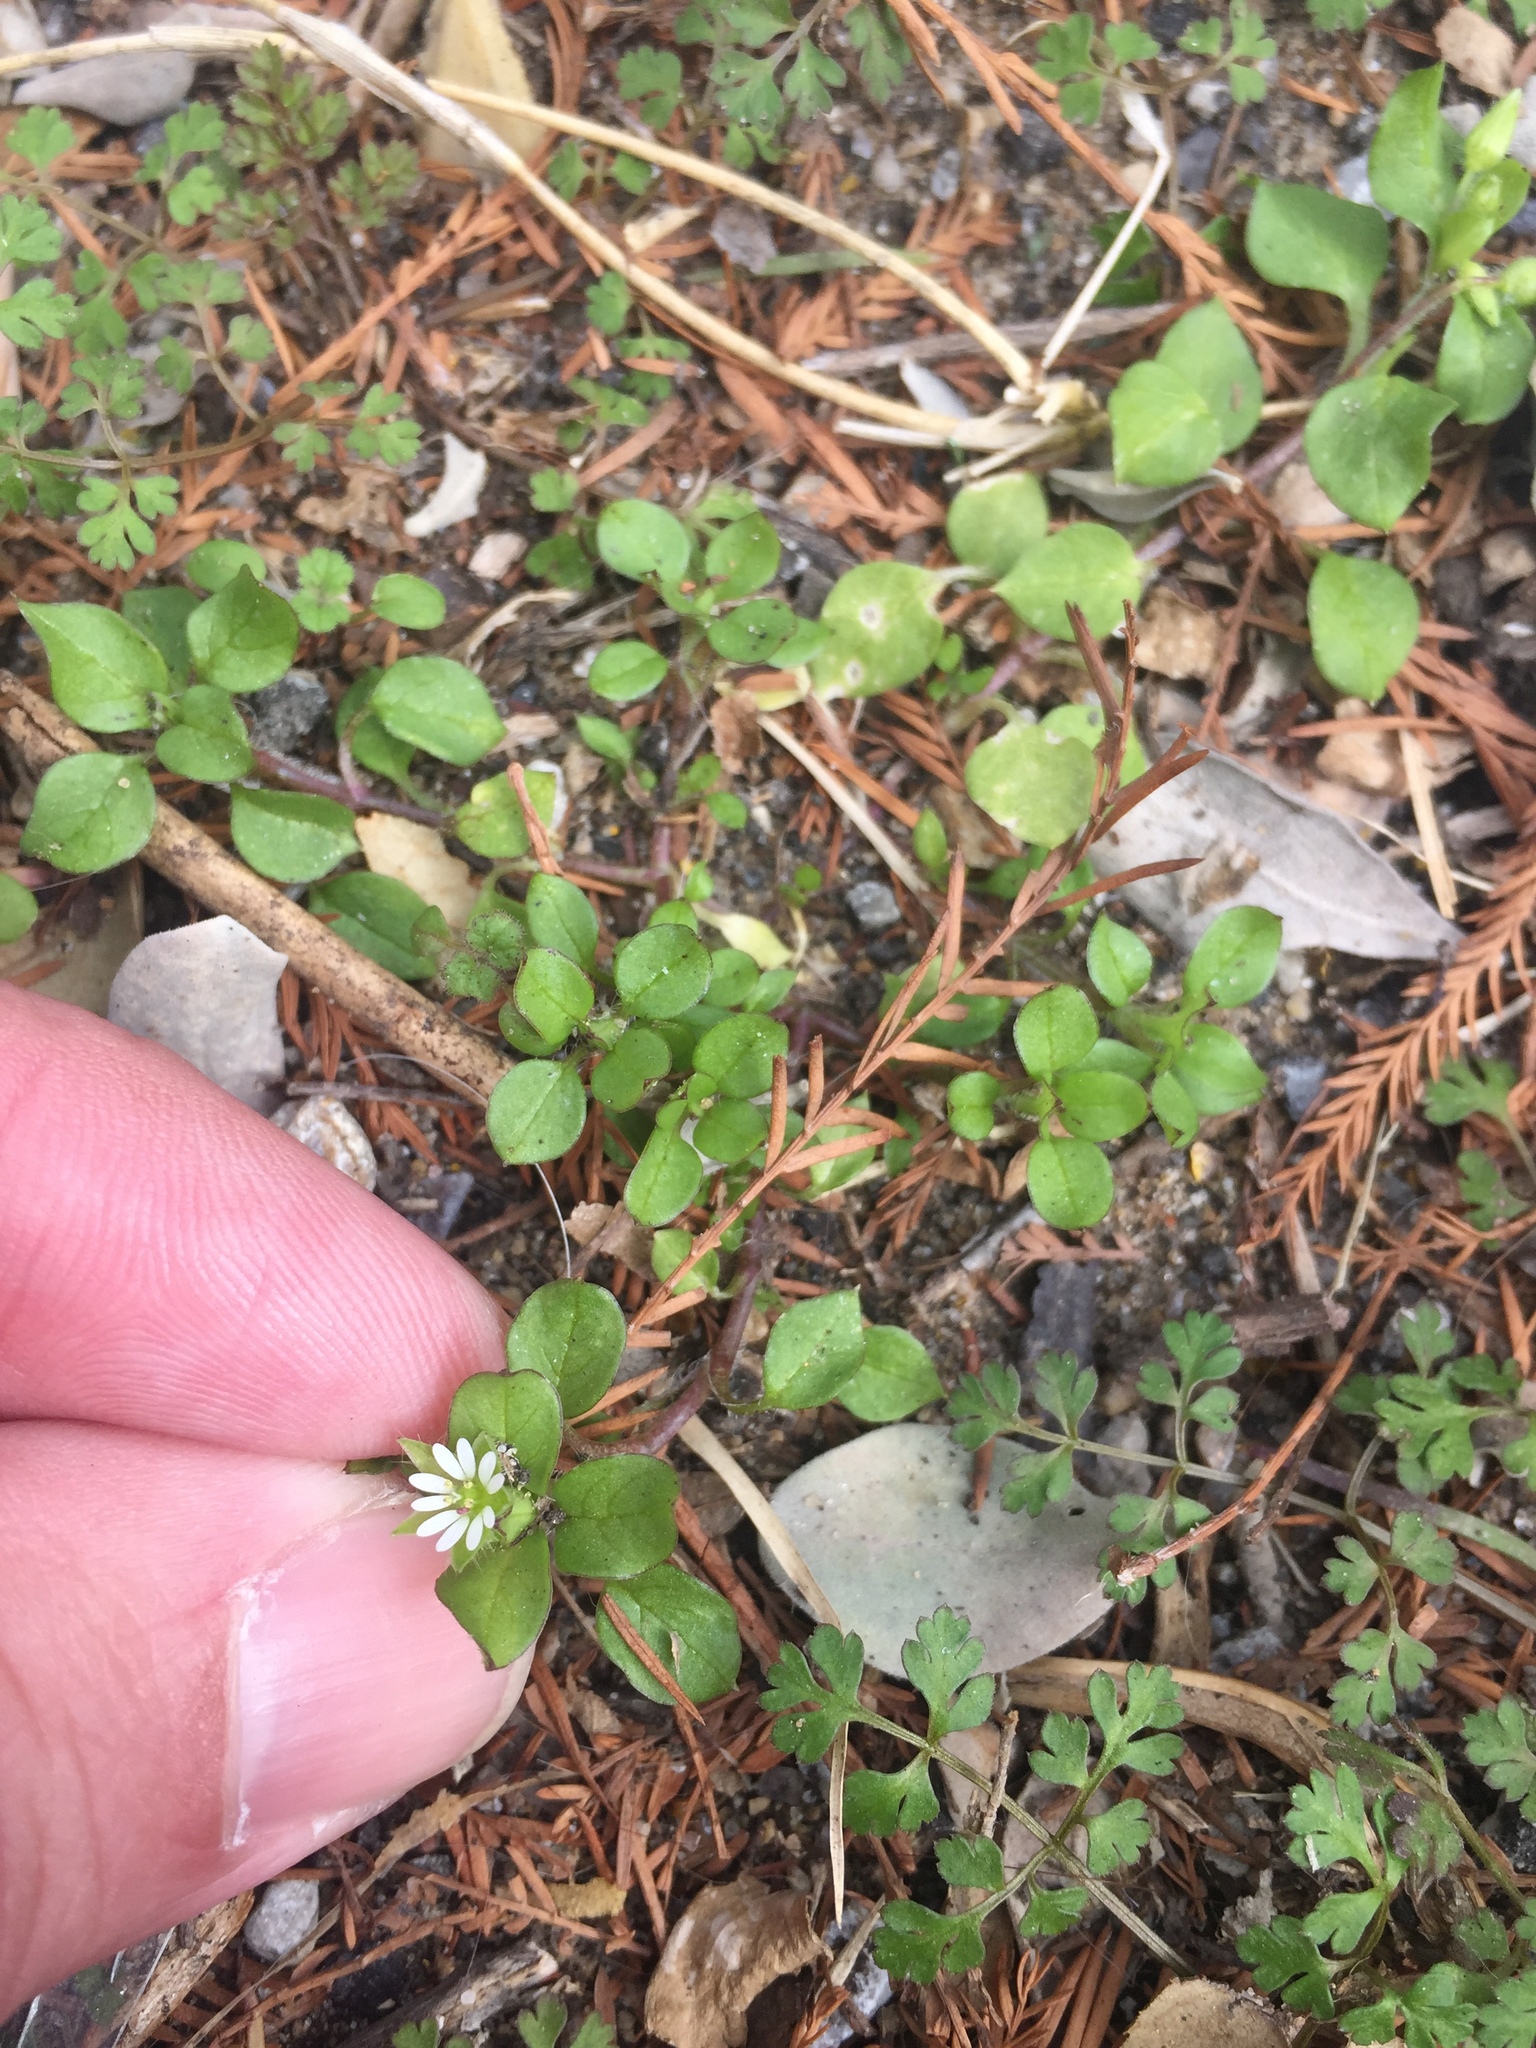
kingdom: Plantae
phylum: Tracheophyta
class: Magnoliopsida
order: Caryophyllales
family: Caryophyllaceae
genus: Stellaria
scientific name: Stellaria media
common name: Common chickweed
